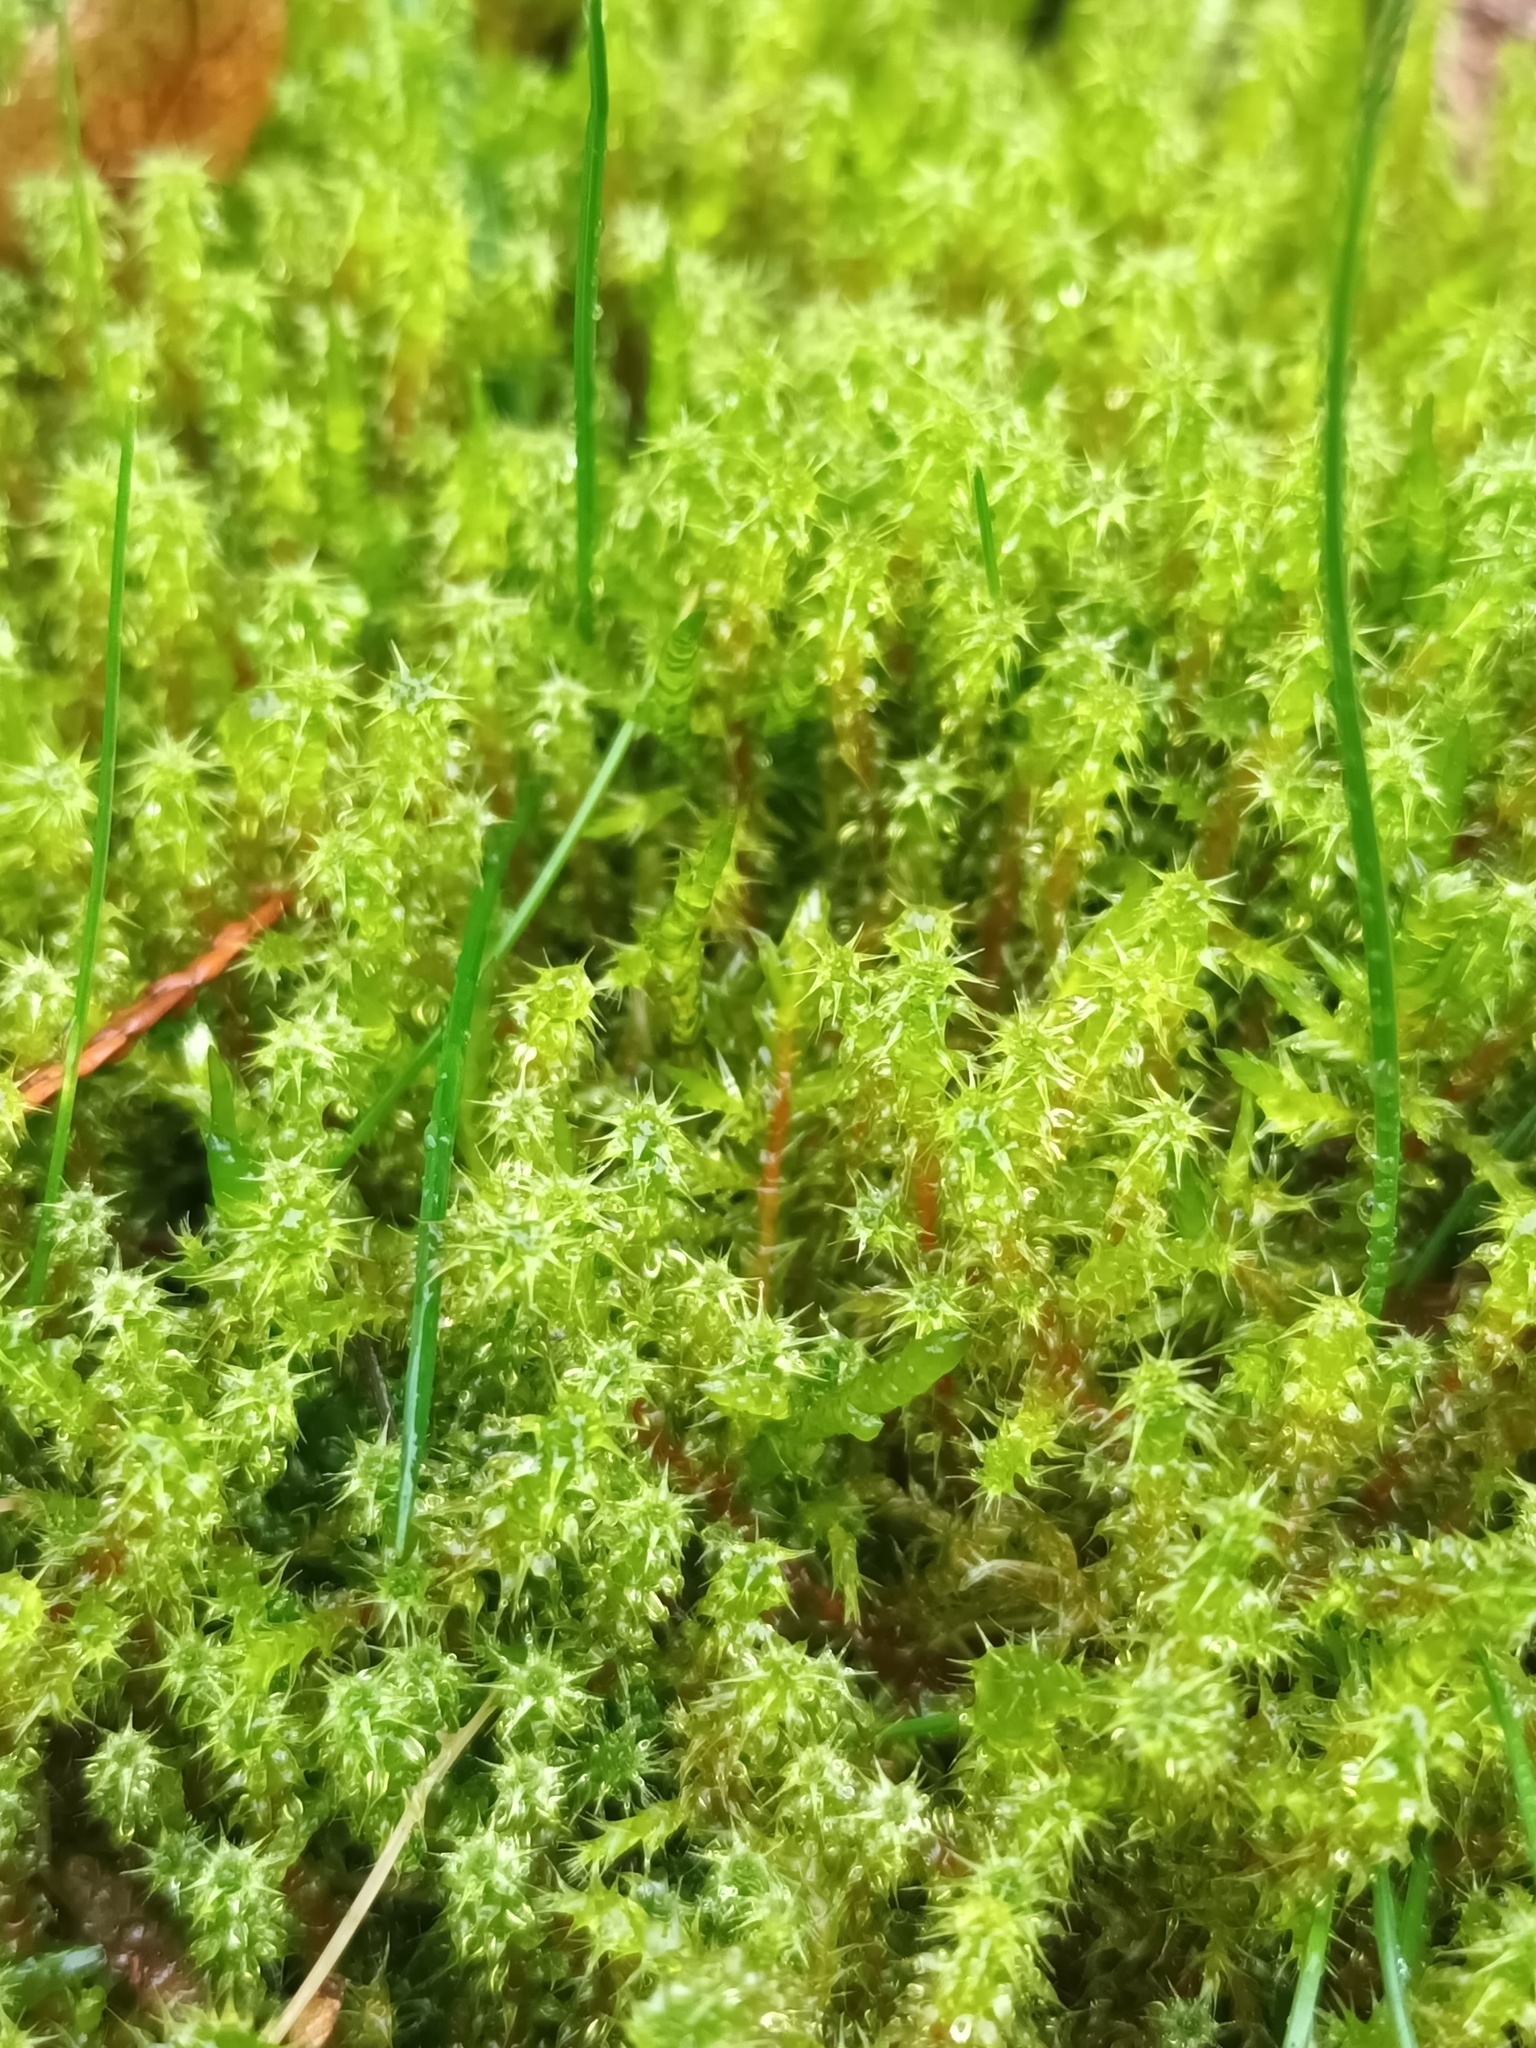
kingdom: Plantae
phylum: Bryophyta
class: Bryopsida
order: Hypnales
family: Hylocomiaceae
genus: Rhytidiadelphus
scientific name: Rhytidiadelphus squarrosus
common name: Springy turf-moss
